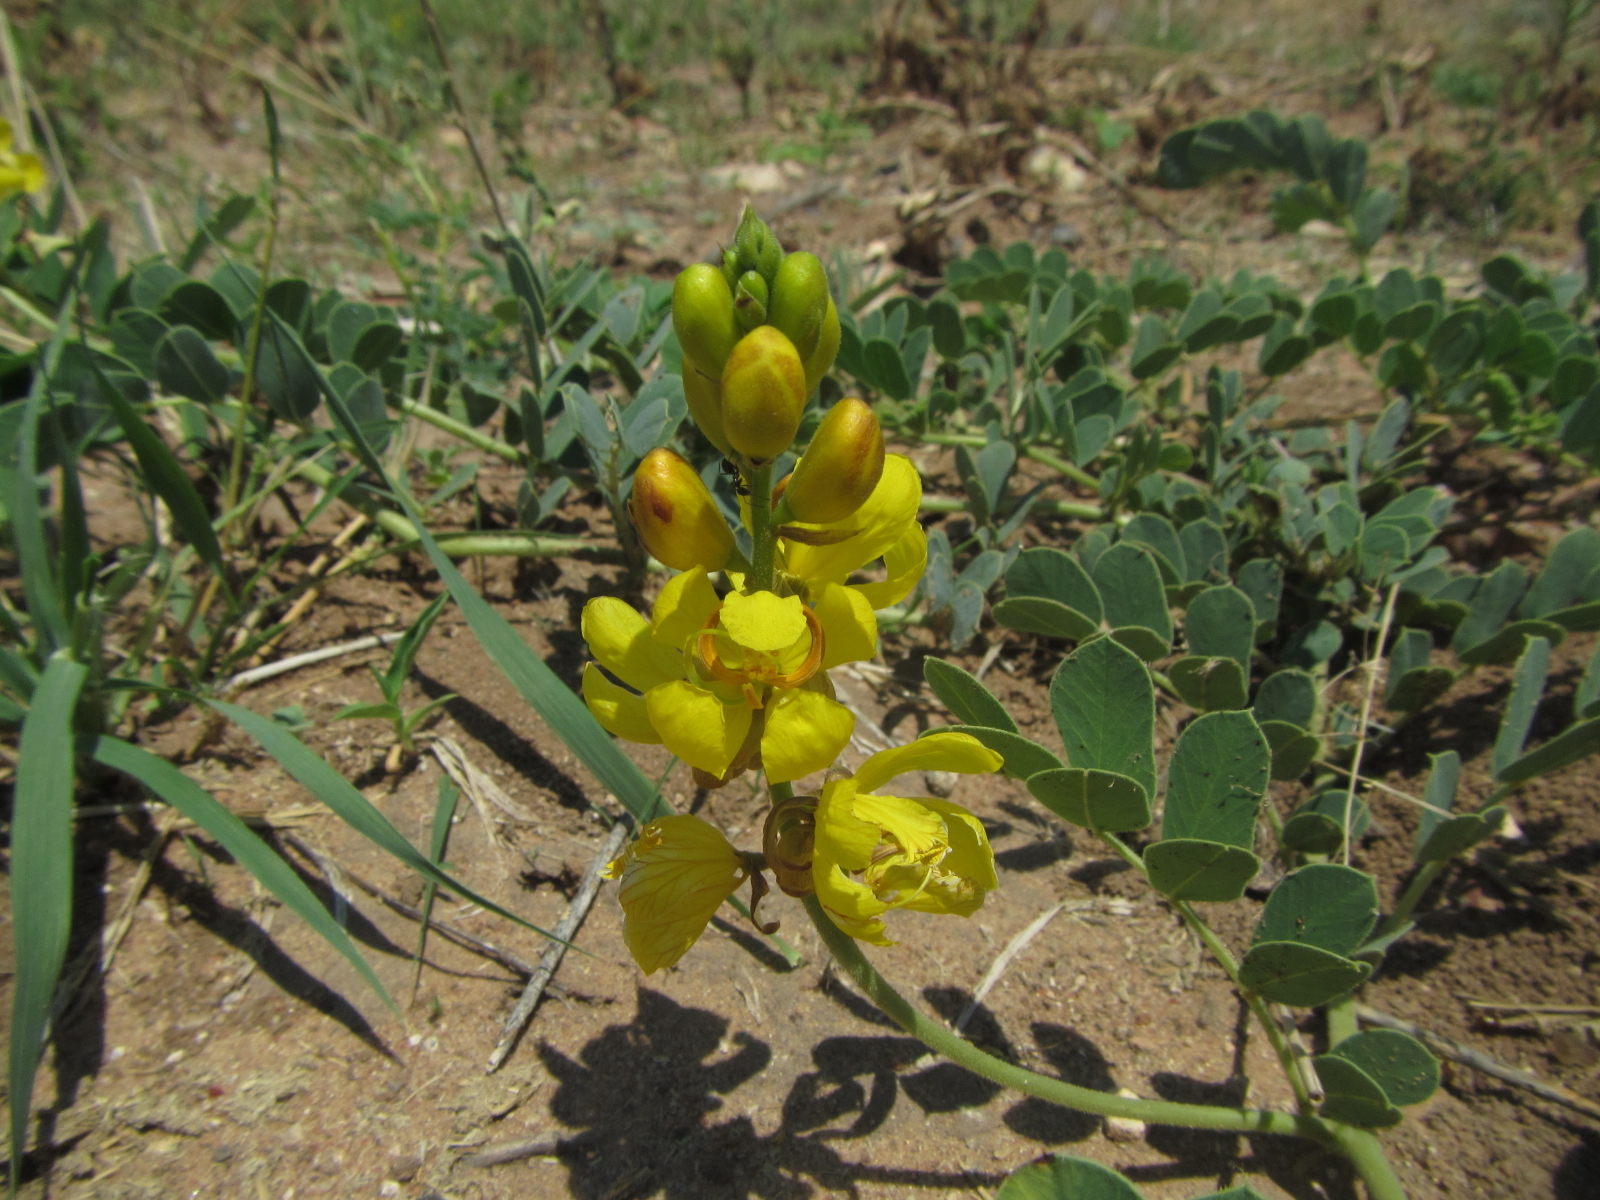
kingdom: Plantae
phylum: Tracheophyta
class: Magnoliopsida
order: Fabales
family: Fabaceae
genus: Senna
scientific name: Senna italica
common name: Port royal senna
